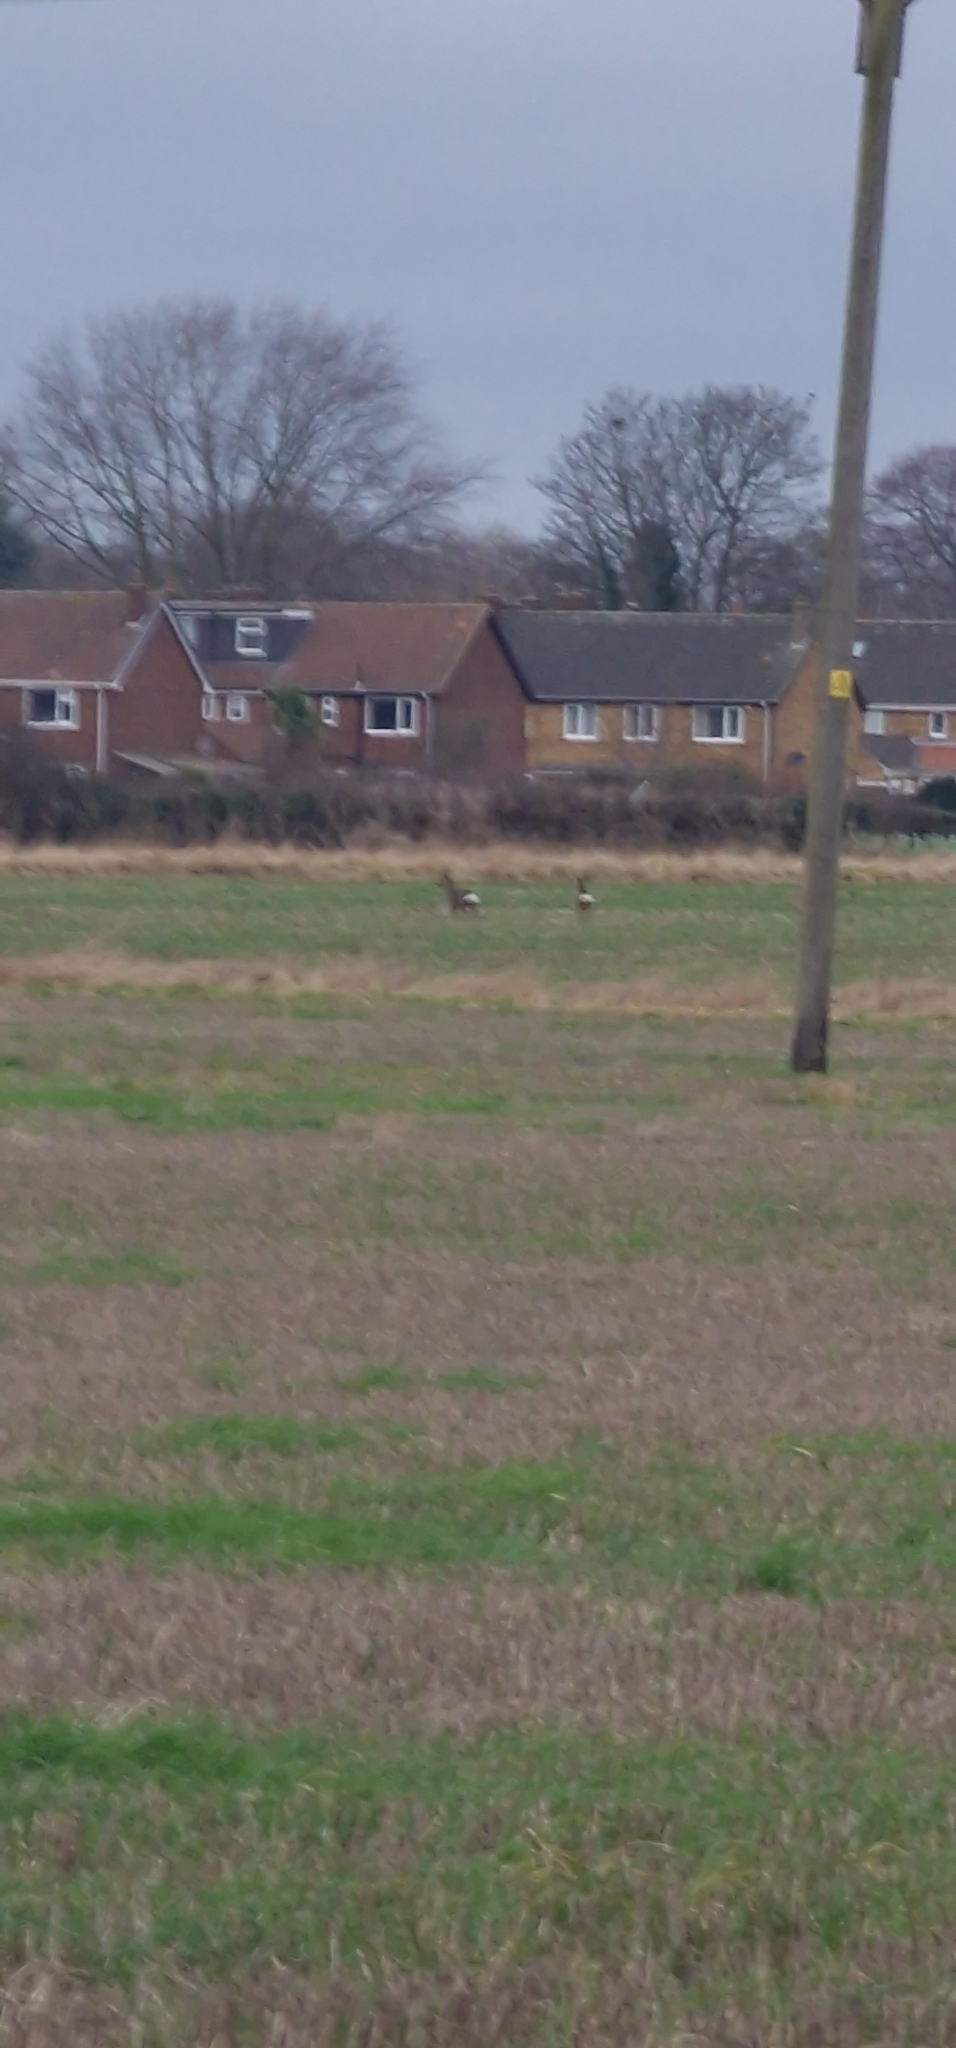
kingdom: Animalia
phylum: Chordata
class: Mammalia
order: Artiodactyla
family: Cervidae
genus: Capreolus
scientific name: Capreolus capreolus
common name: Western roe deer
